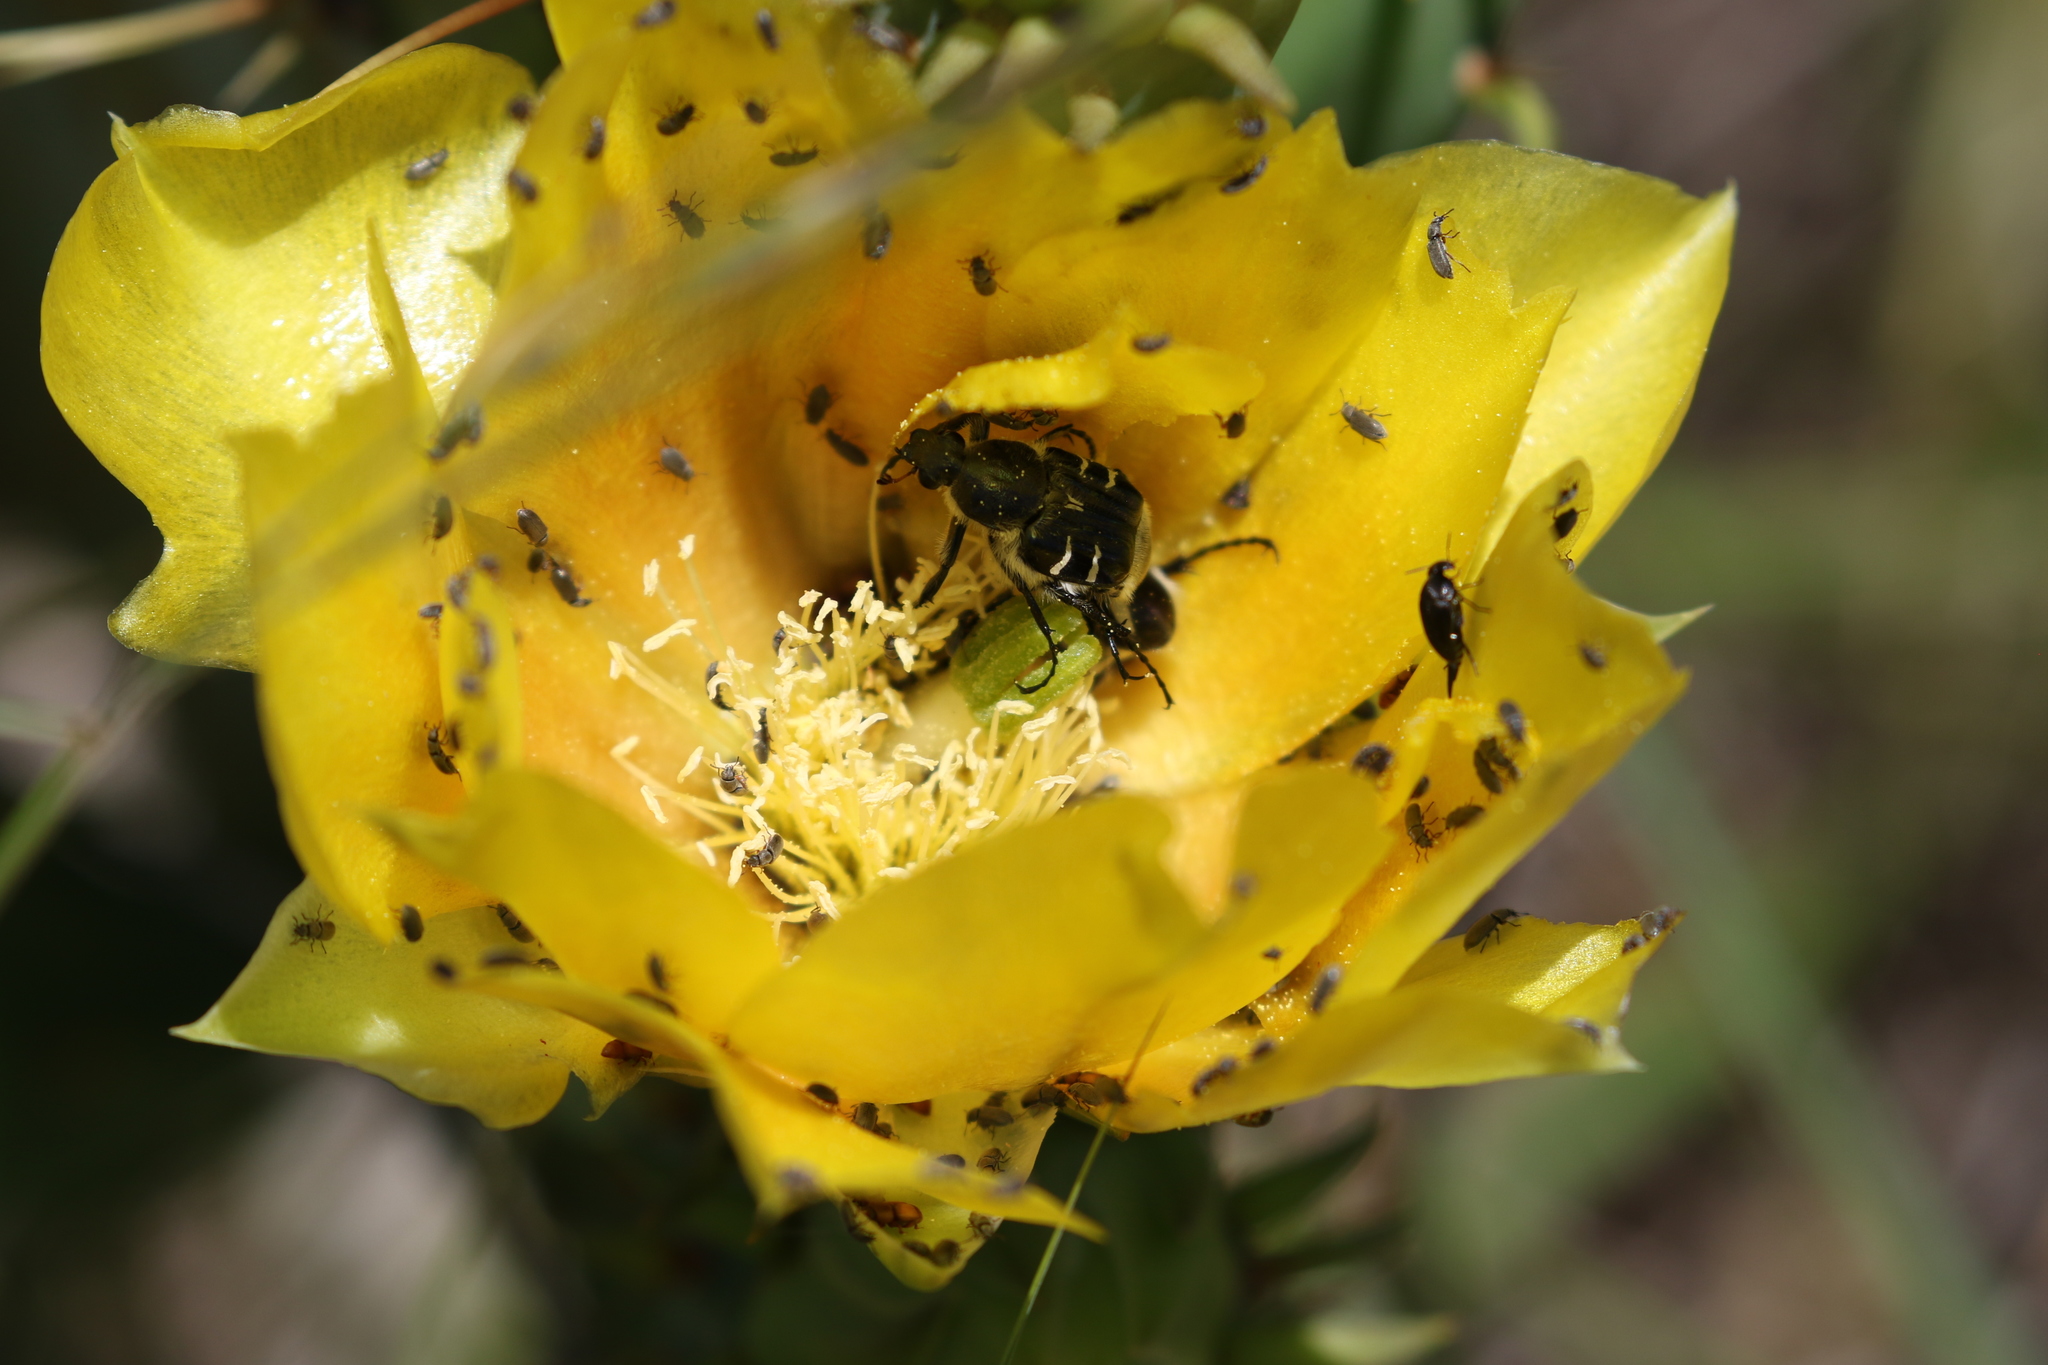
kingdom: Animalia
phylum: Arthropoda
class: Insecta
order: Coleoptera
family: Scarabaeidae
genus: Trichiotinus
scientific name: Trichiotinus texanus
